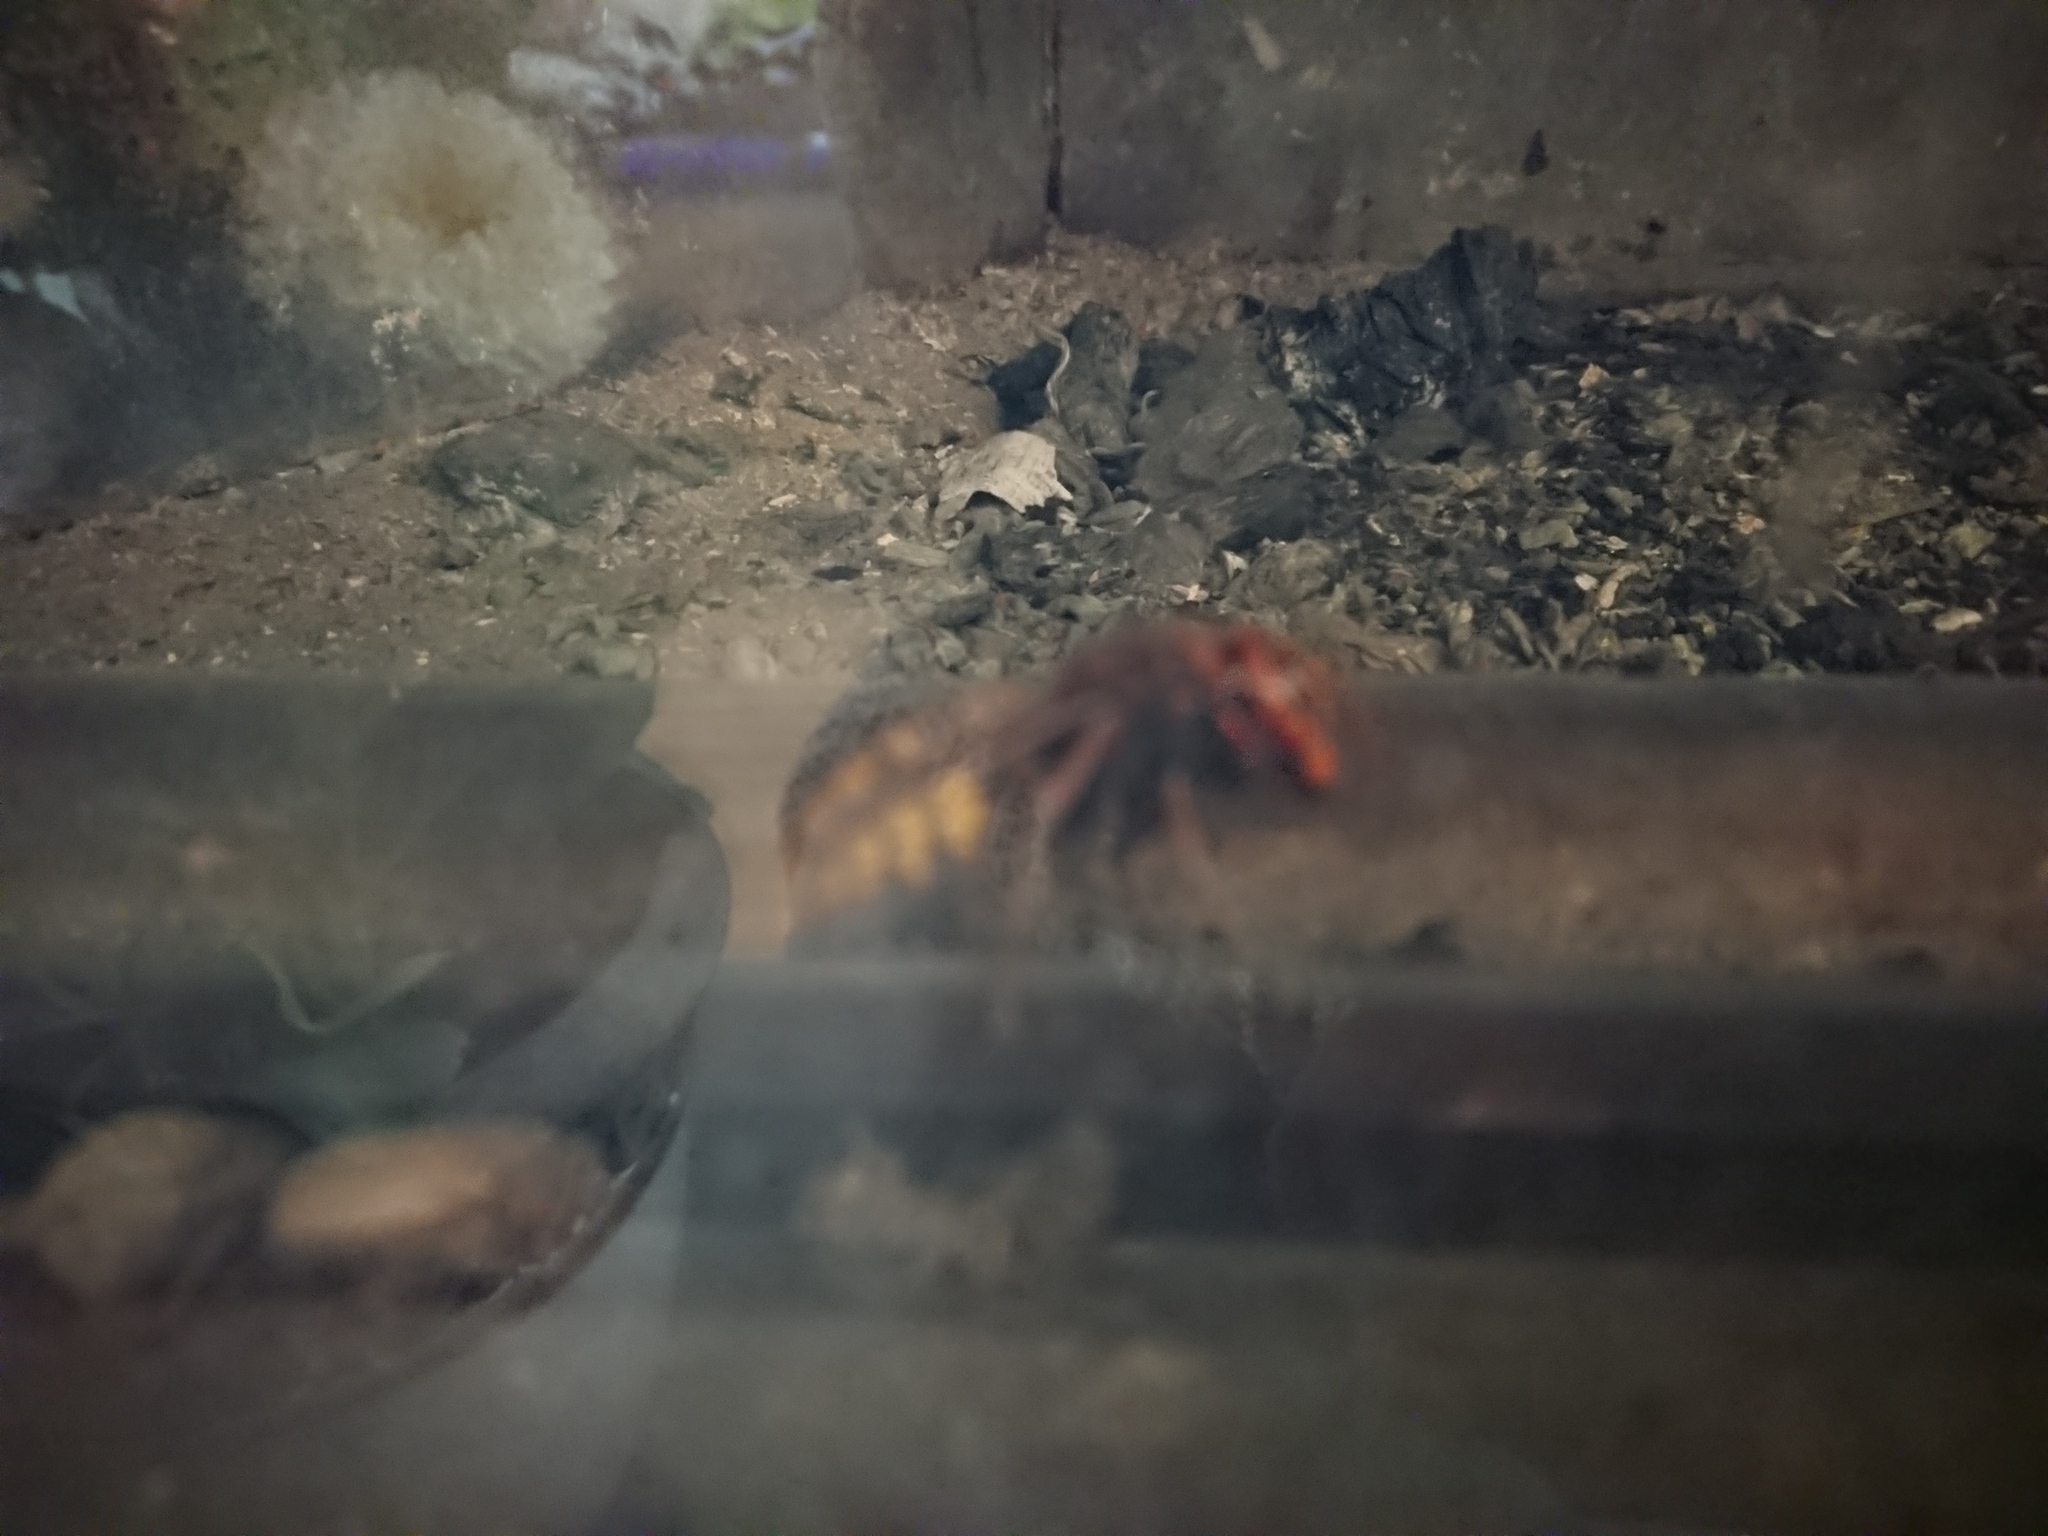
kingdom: Animalia
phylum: Arthropoda
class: Insecta
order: Hymenoptera
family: Vespidae
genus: Vespa
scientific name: Vespa crabro
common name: Hornet
